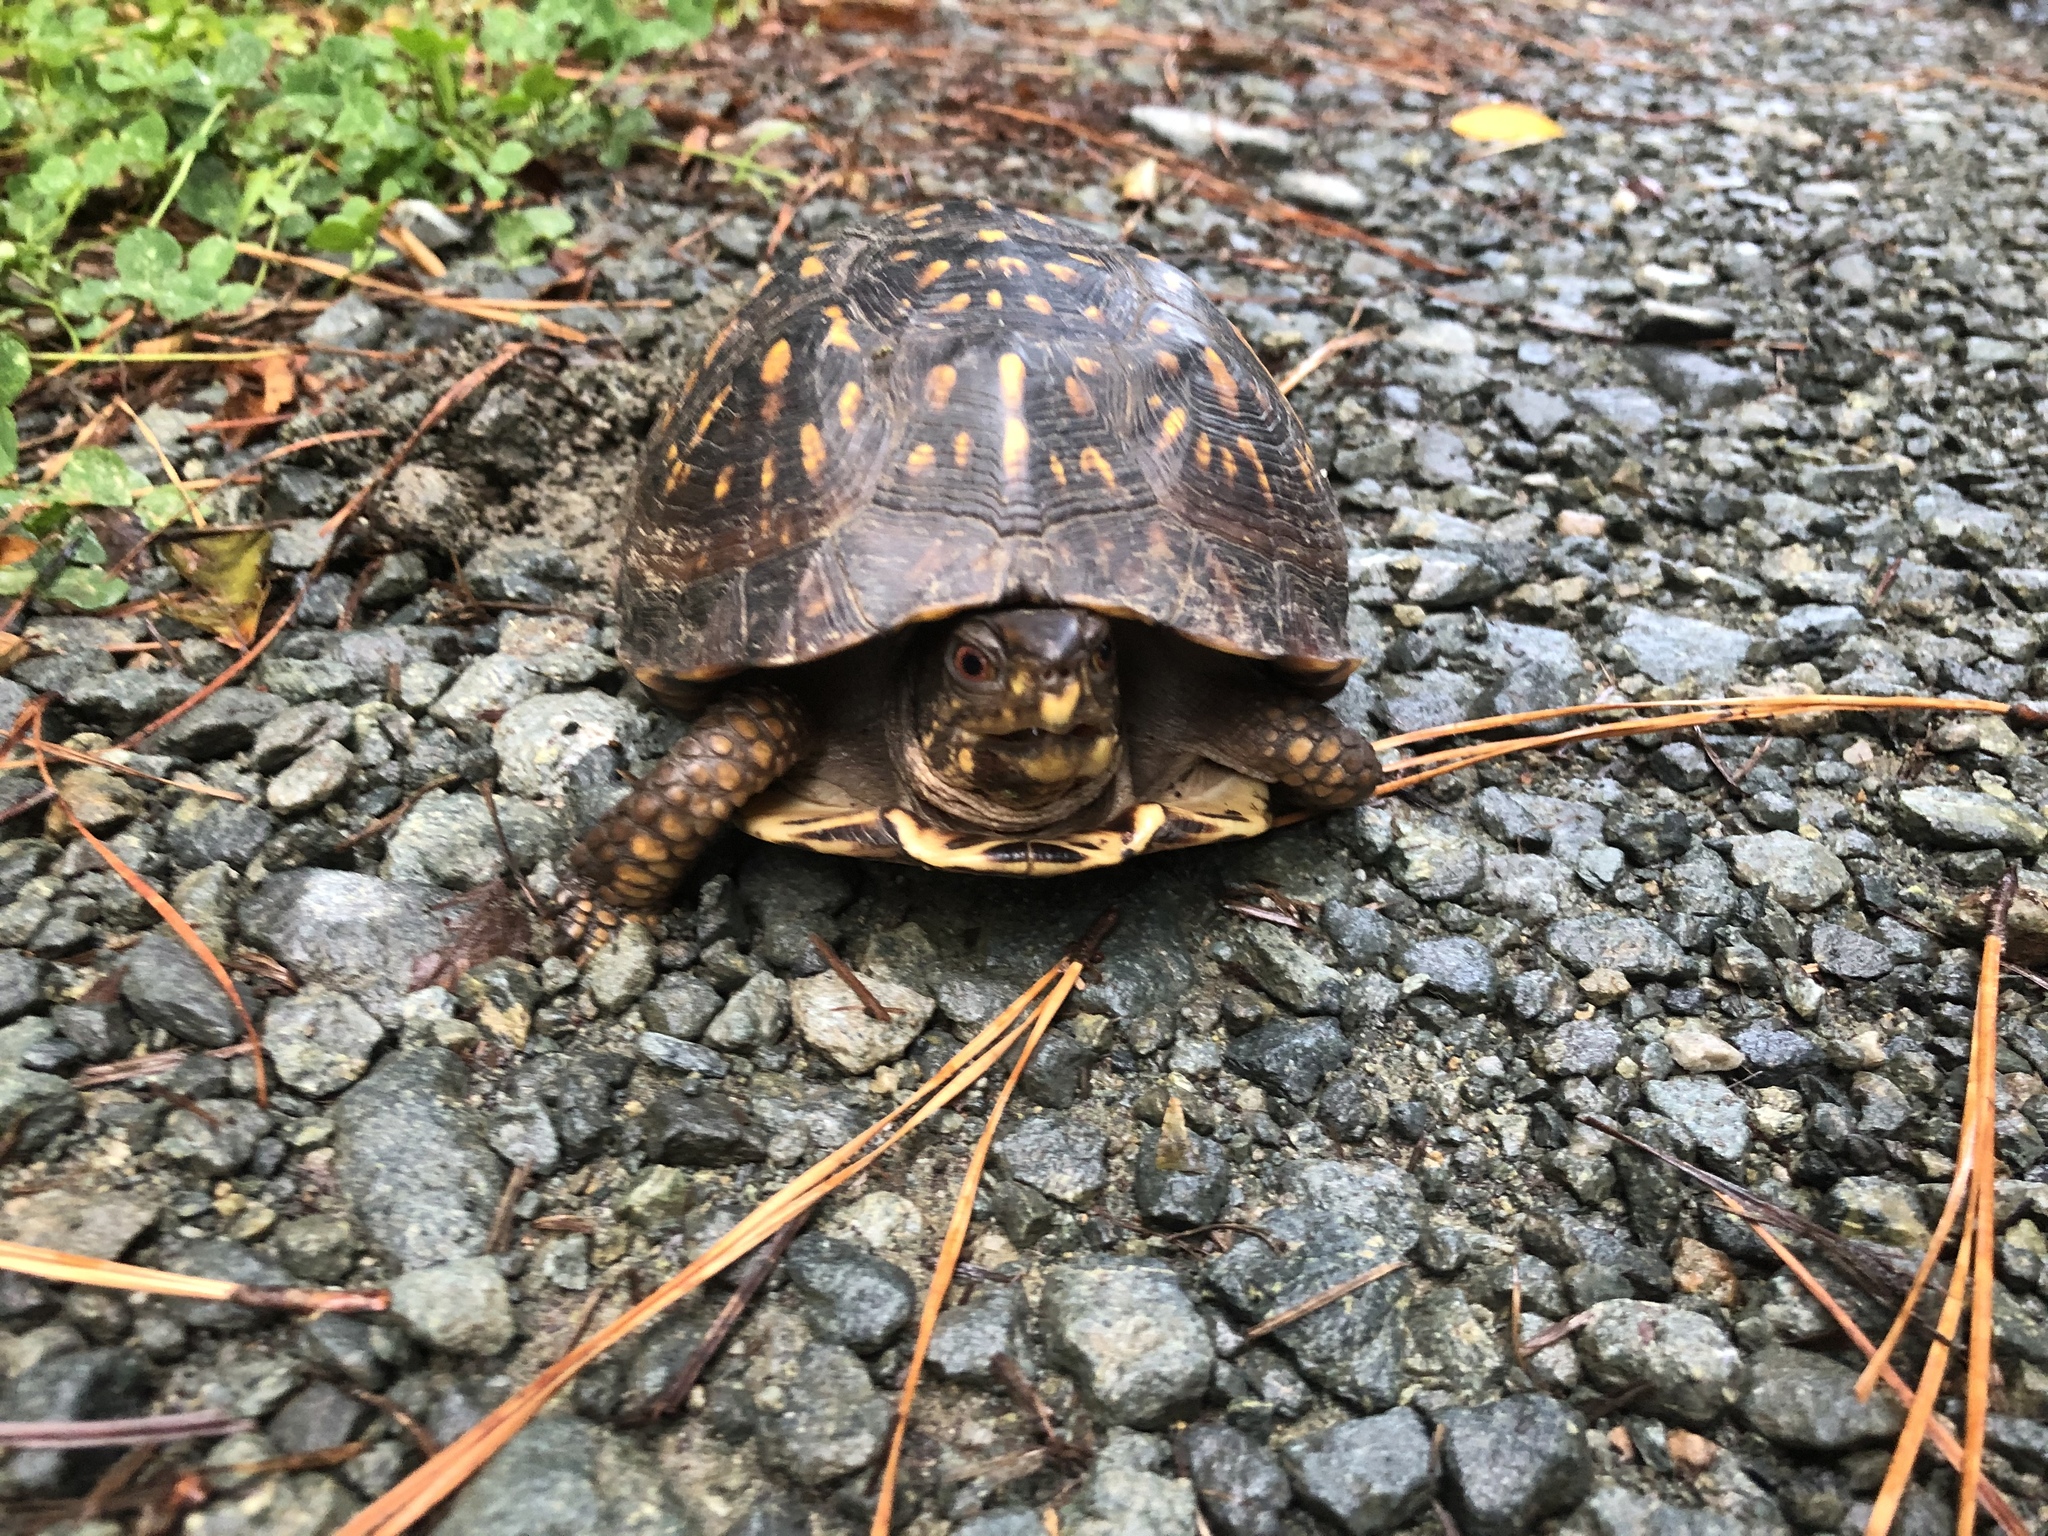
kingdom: Animalia
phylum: Chordata
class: Testudines
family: Emydidae
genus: Terrapene
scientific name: Terrapene carolina
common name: Common box turtle
